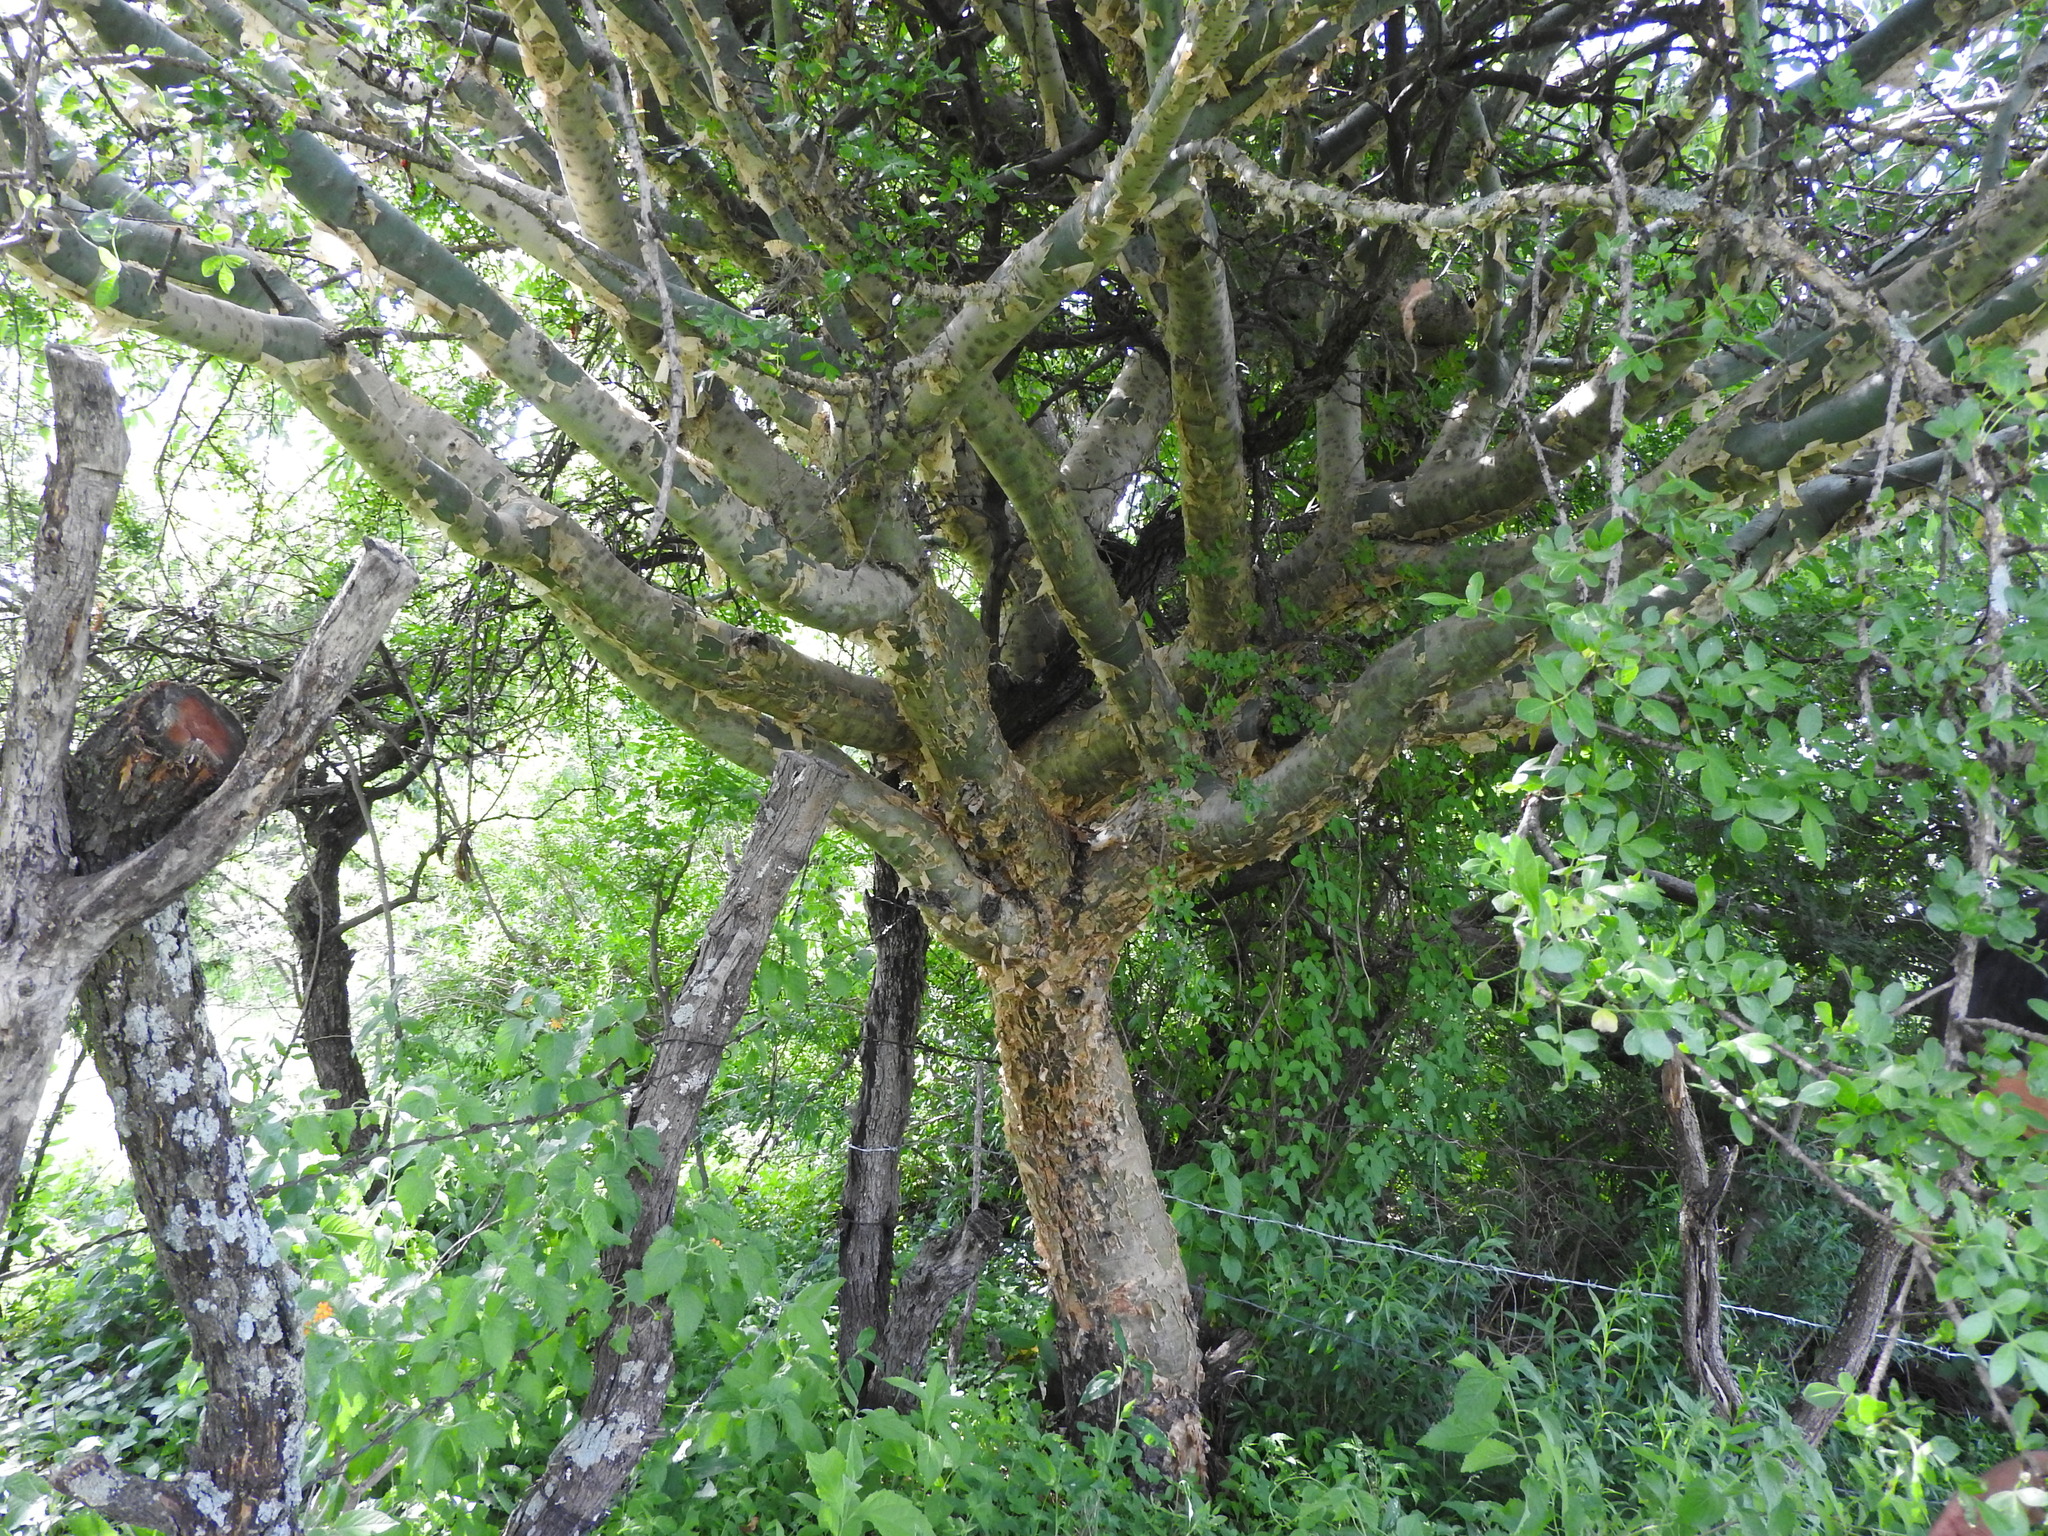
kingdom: Plantae
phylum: Tracheophyta
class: Magnoliopsida
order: Sapindales
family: Burseraceae
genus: Bursera
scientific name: Bursera fagaroides
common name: Elephant tree
